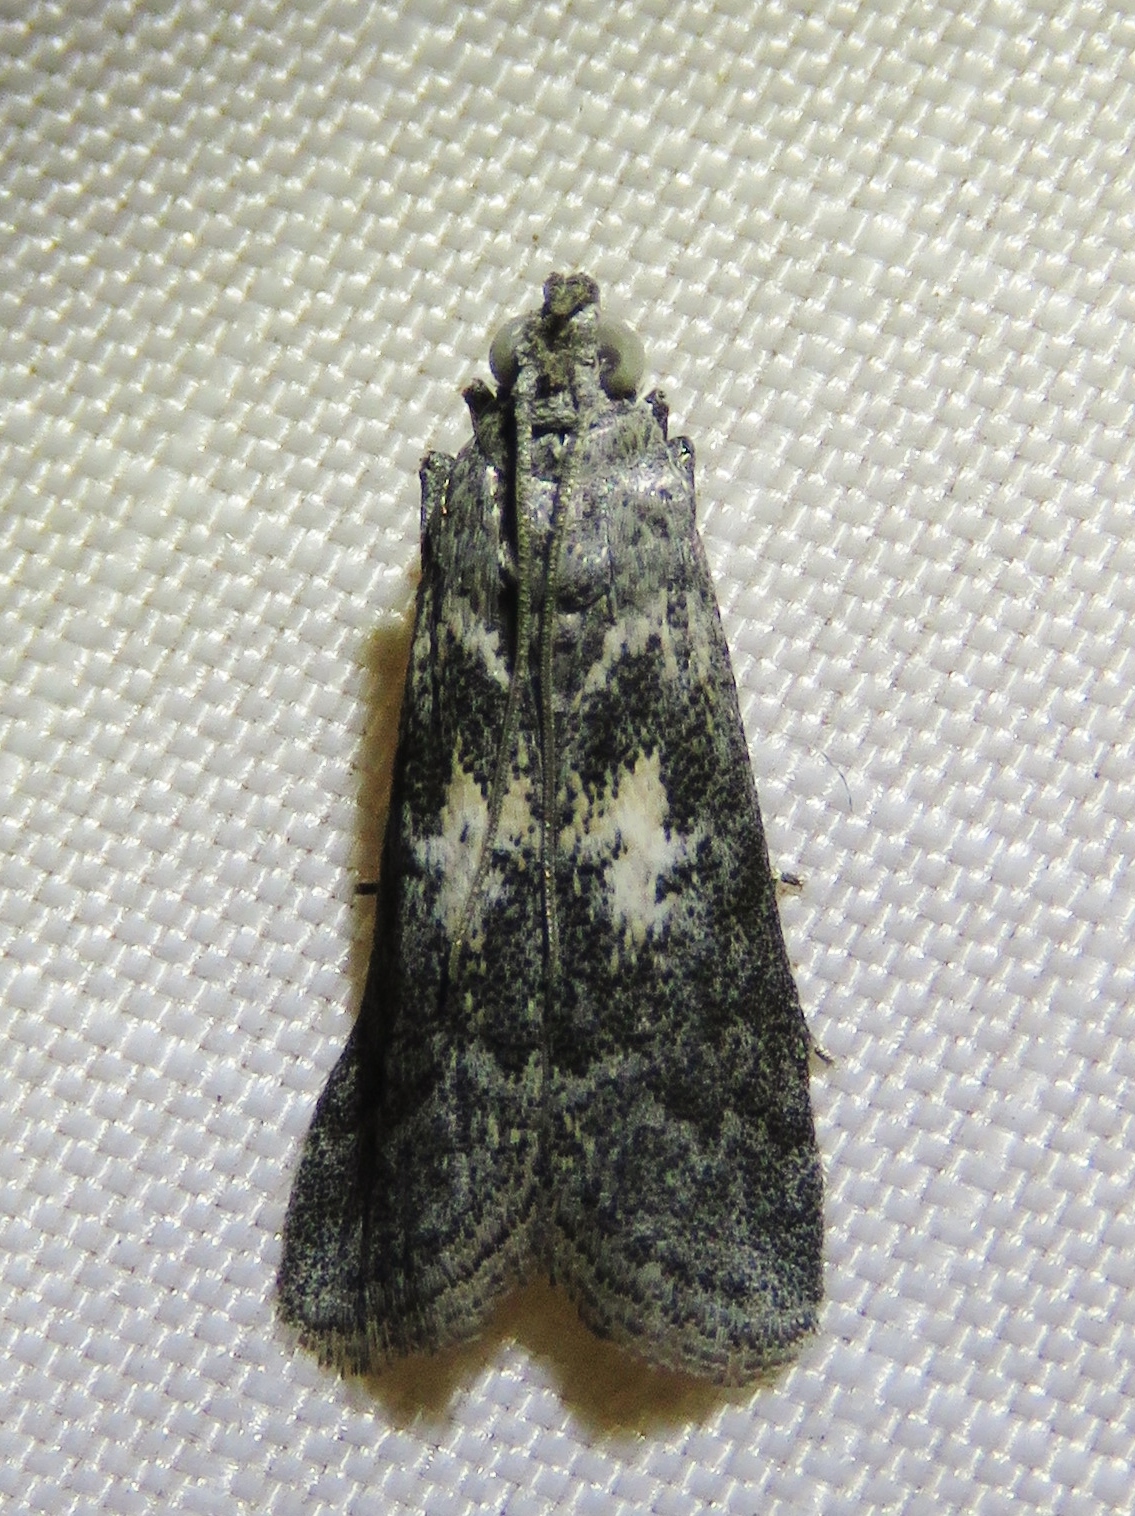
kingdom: Animalia
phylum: Arthropoda
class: Insecta
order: Lepidoptera
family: Pyralidae
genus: Tacoma
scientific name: Tacoma feriella
